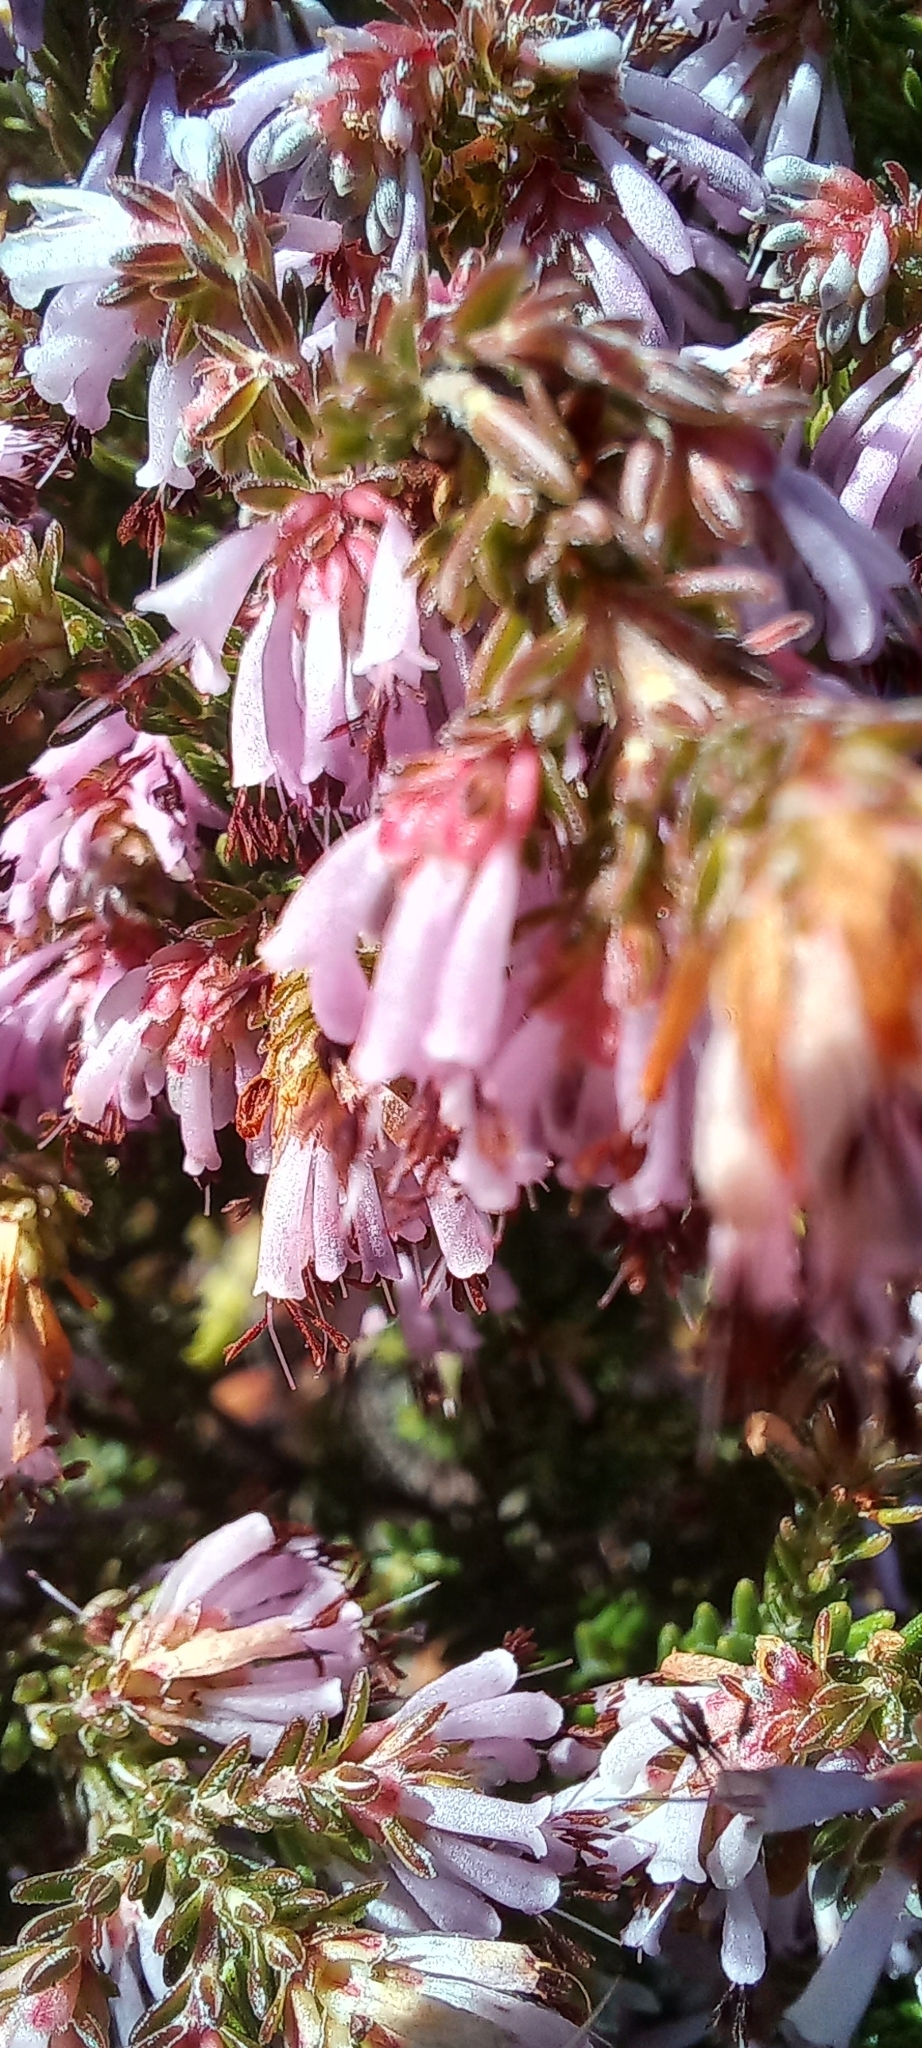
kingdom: Plantae
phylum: Tracheophyta
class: Magnoliopsida
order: Ericales
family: Ericaceae
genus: Erica
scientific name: Erica labialis
